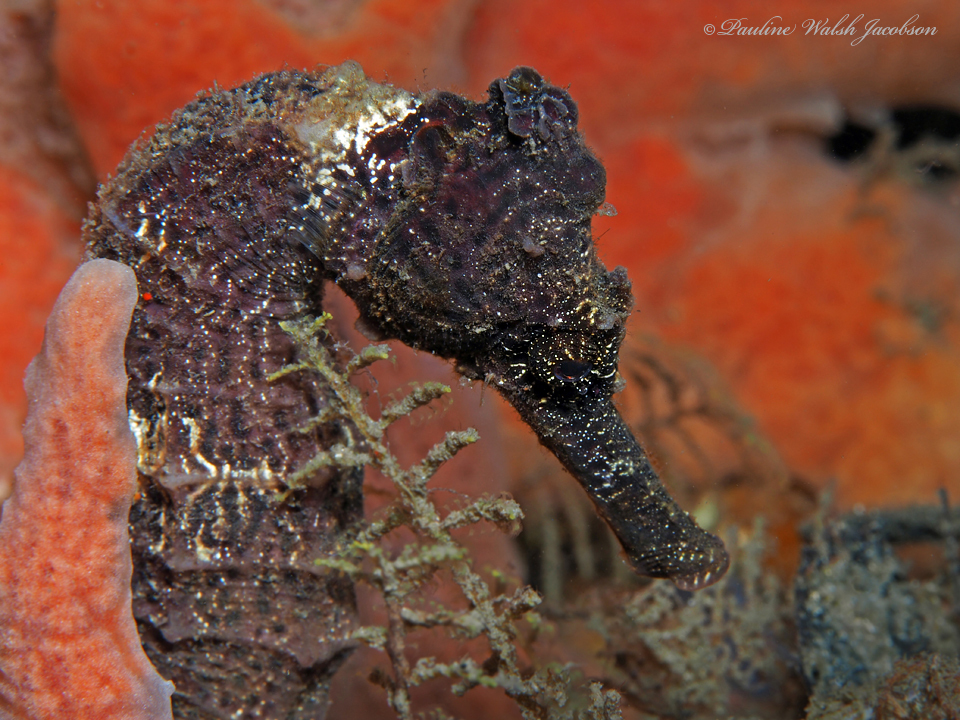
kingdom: Animalia
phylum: Chordata
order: Syngnathiformes
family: Syngnathidae
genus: Hippocampus
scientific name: Hippocampus reidi
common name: Slender seahorse
